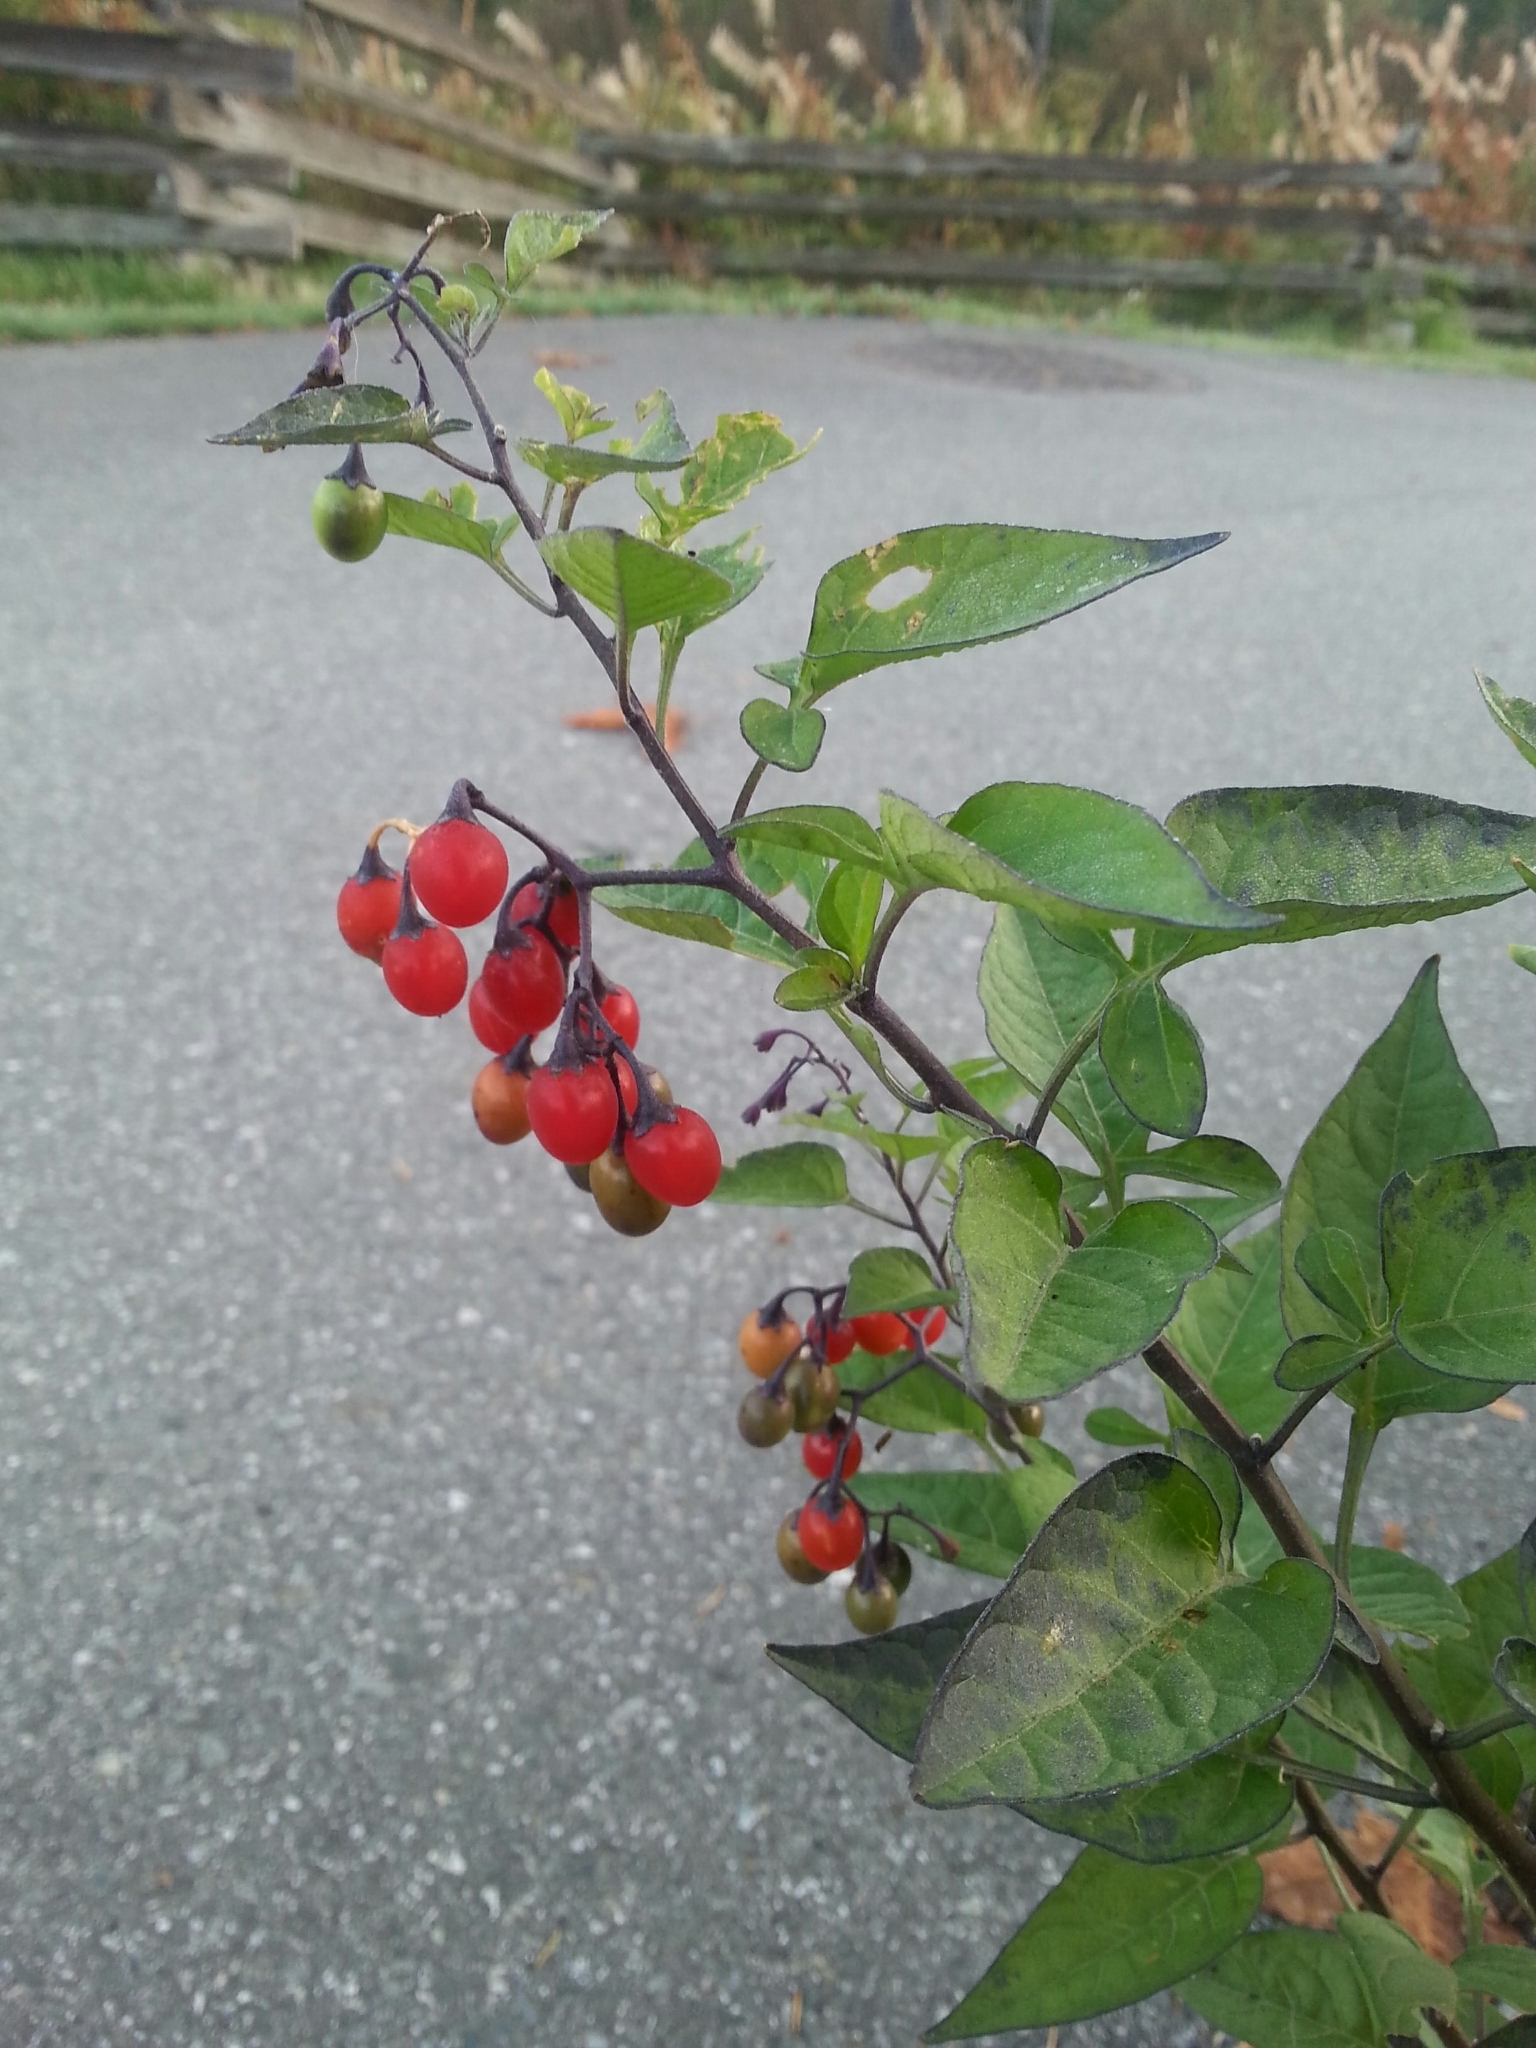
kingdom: Plantae
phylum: Tracheophyta
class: Magnoliopsida
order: Solanales
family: Solanaceae
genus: Solanum
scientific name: Solanum dulcamara
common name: Climbing nightshade
